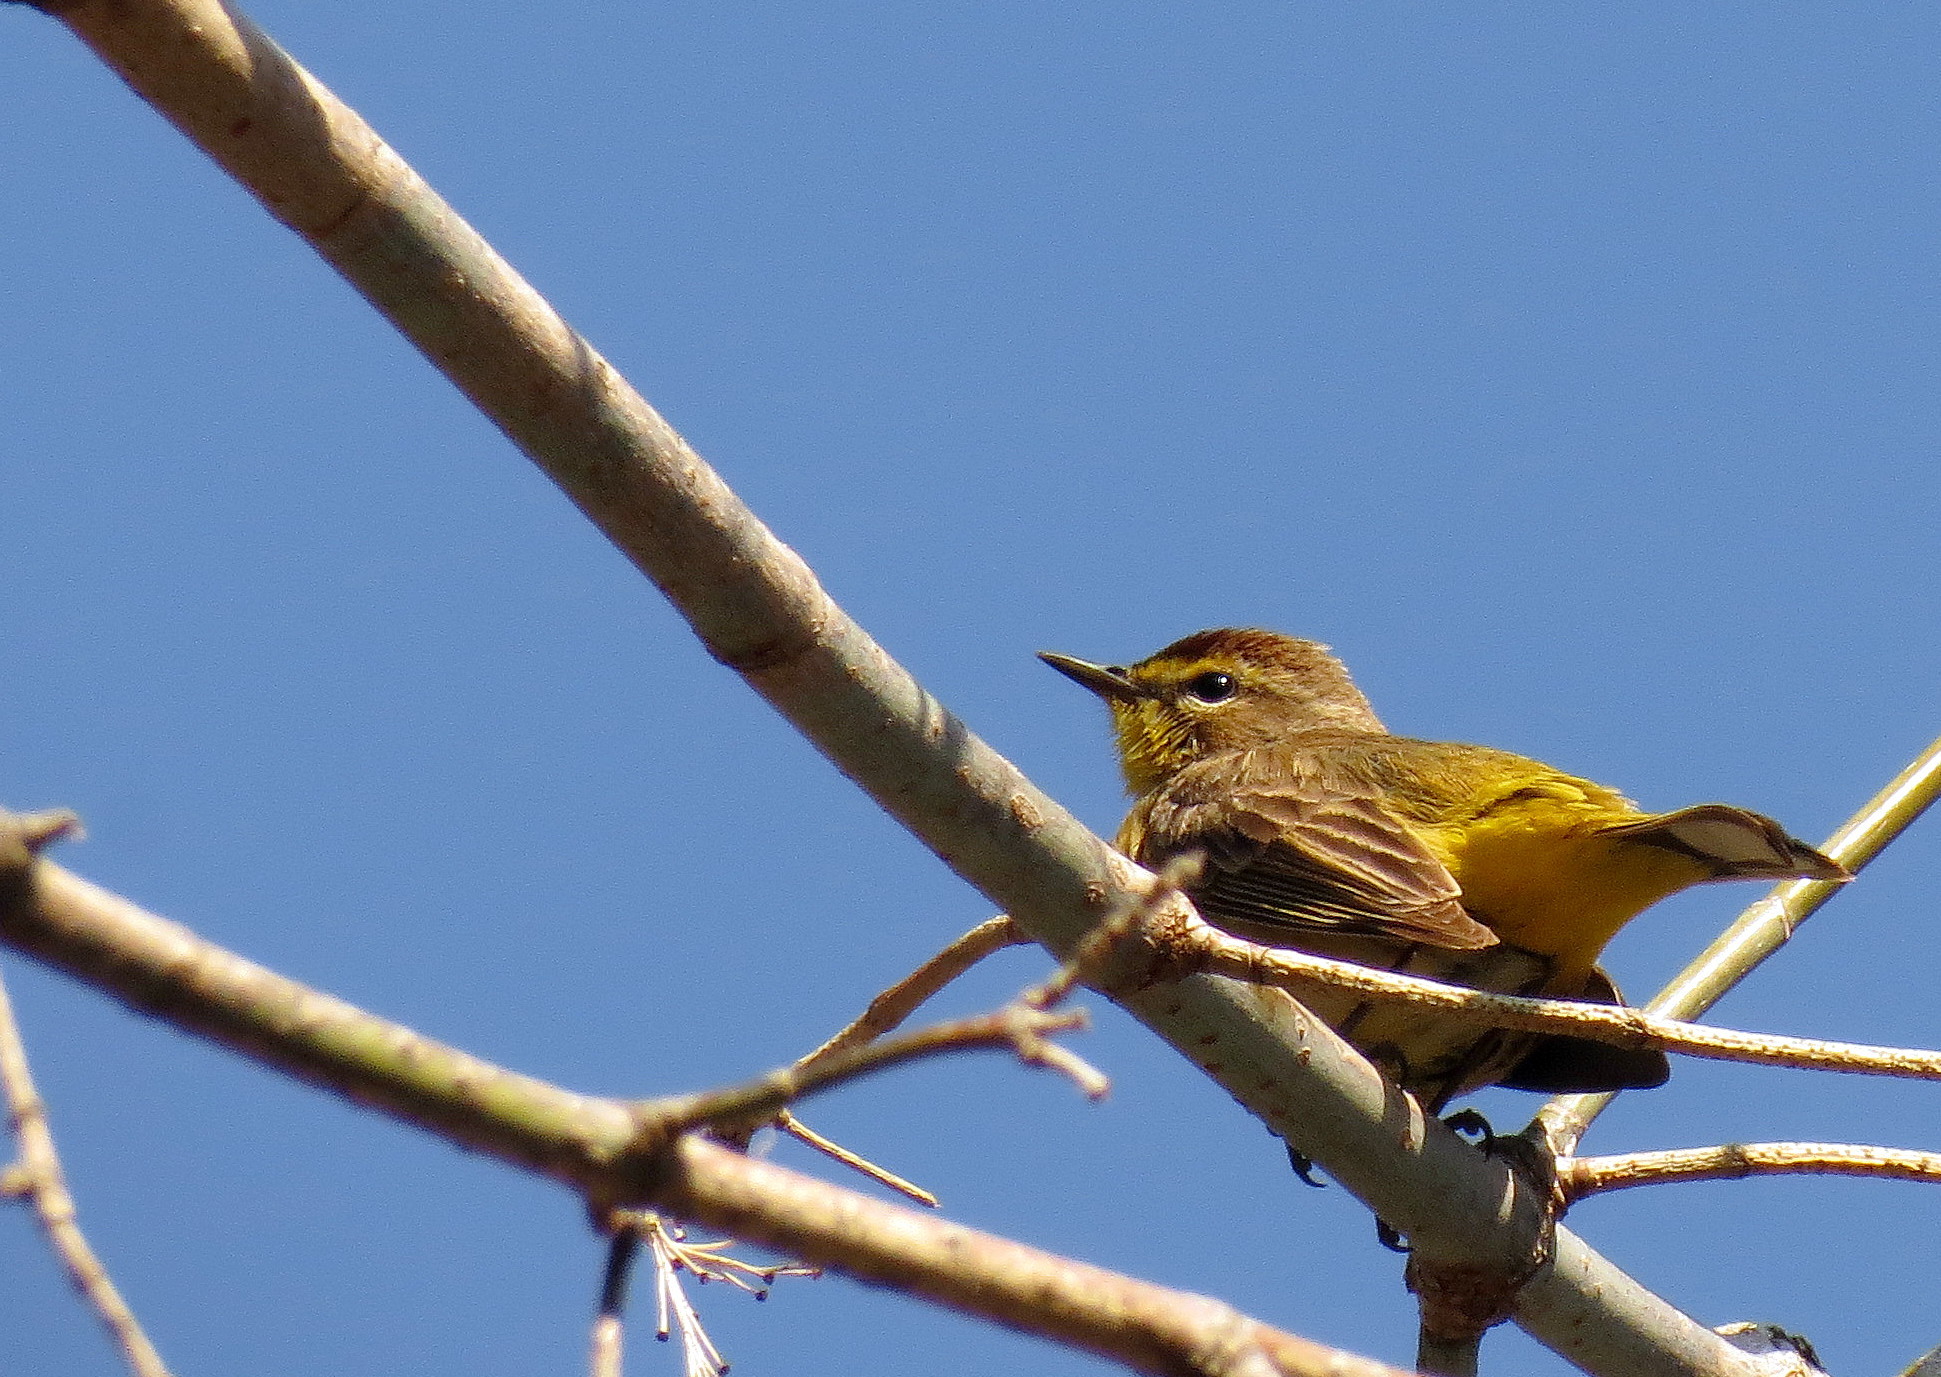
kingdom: Animalia
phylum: Chordata
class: Aves
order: Passeriformes
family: Parulidae
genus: Setophaga
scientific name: Setophaga palmarum
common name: Palm warbler
